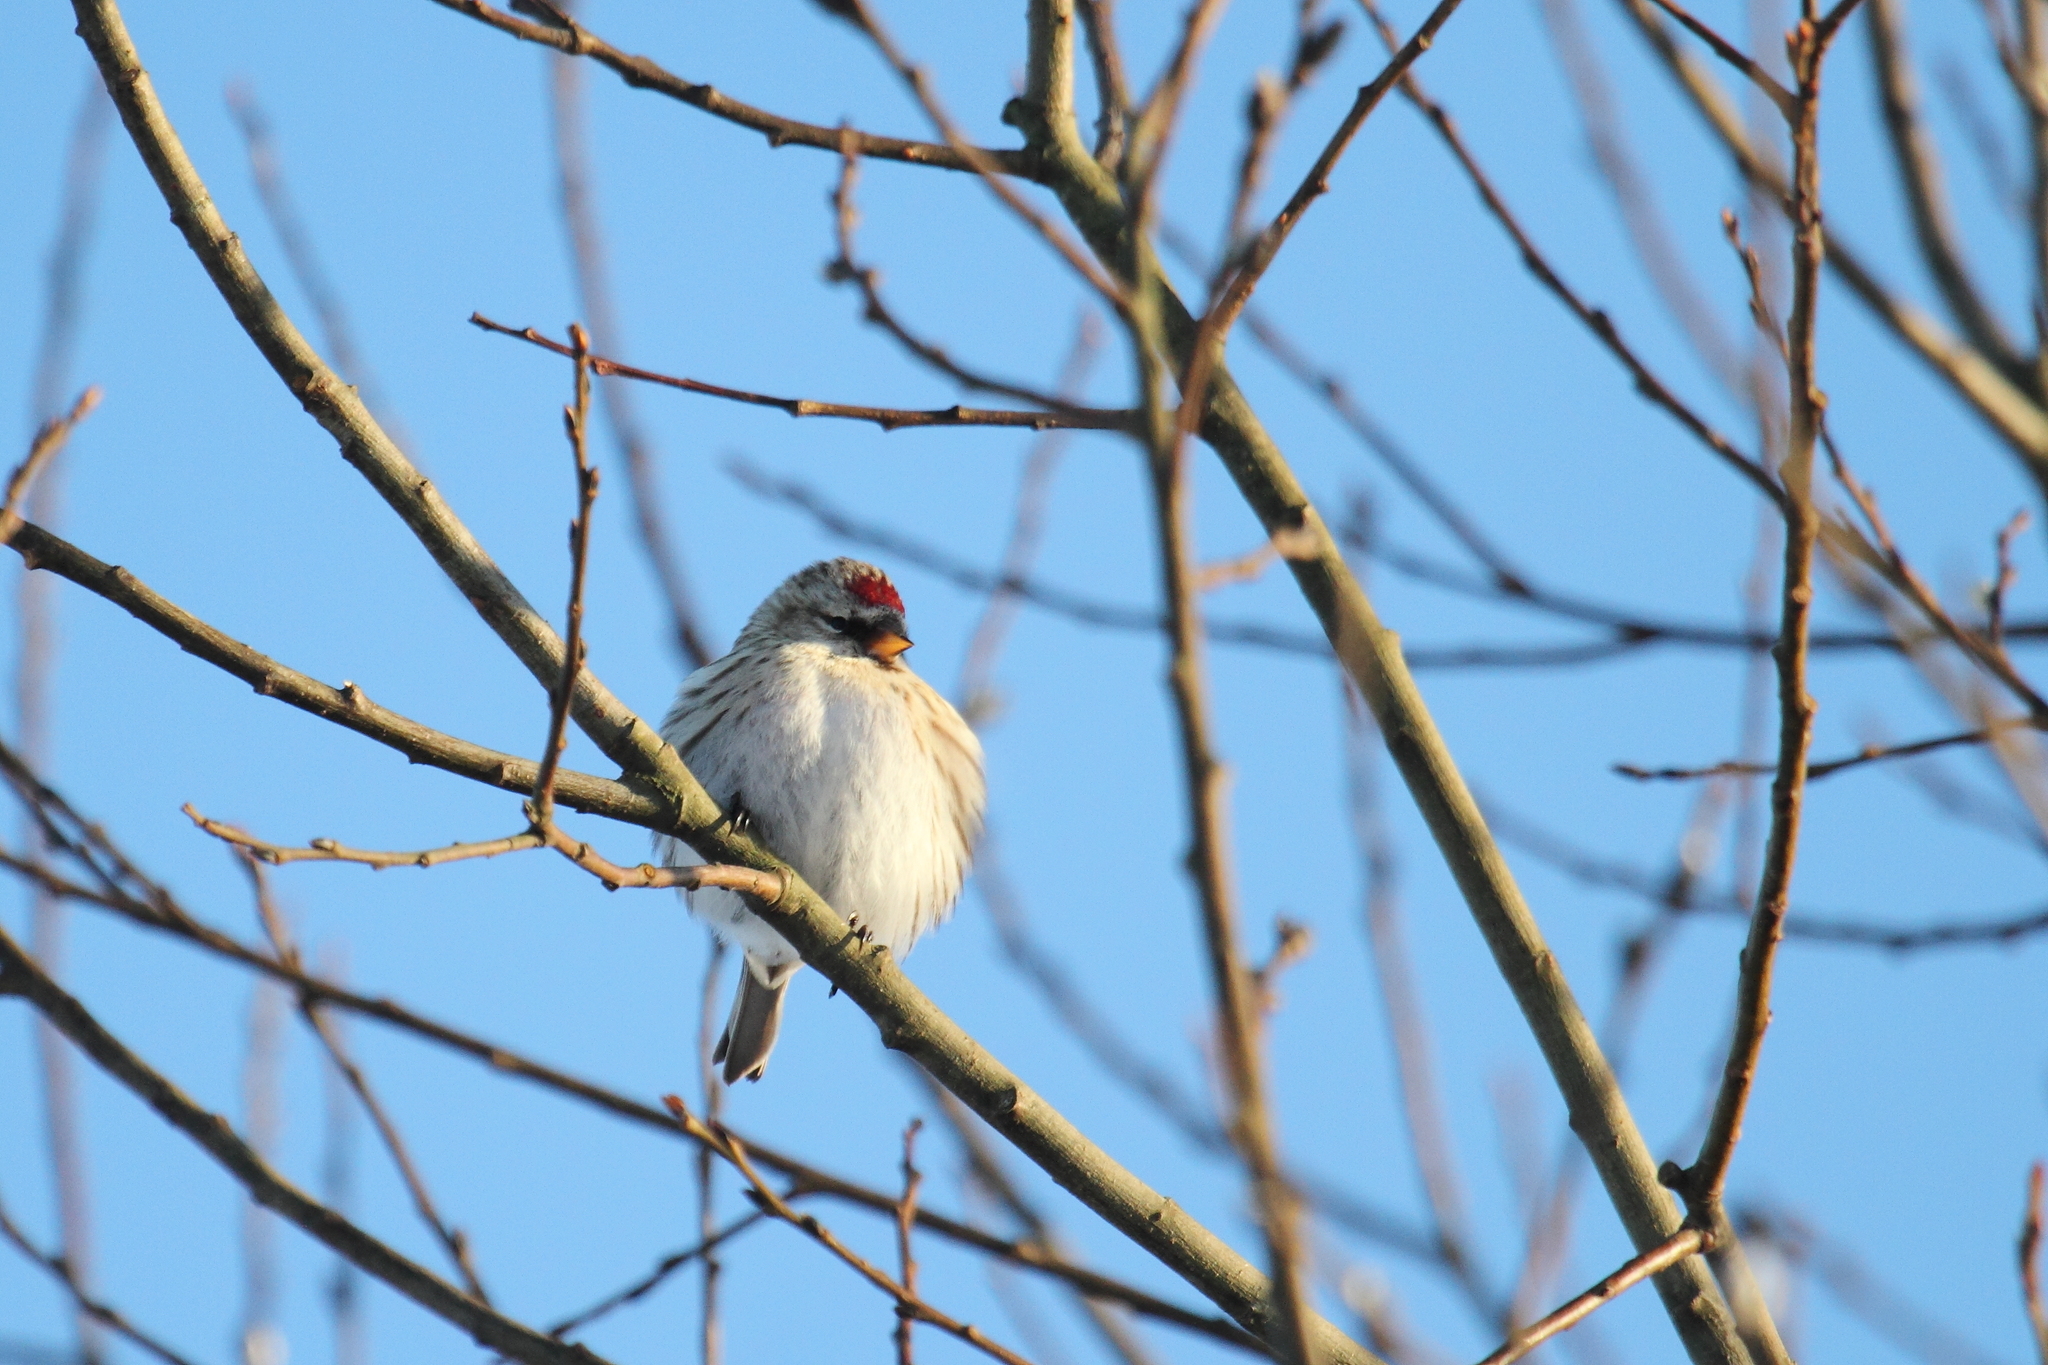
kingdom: Animalia
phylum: Chordata
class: Aves
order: Passeriformes
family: Fringillidae
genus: Acanthis
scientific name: Acanthis flammea
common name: Common redpoll
